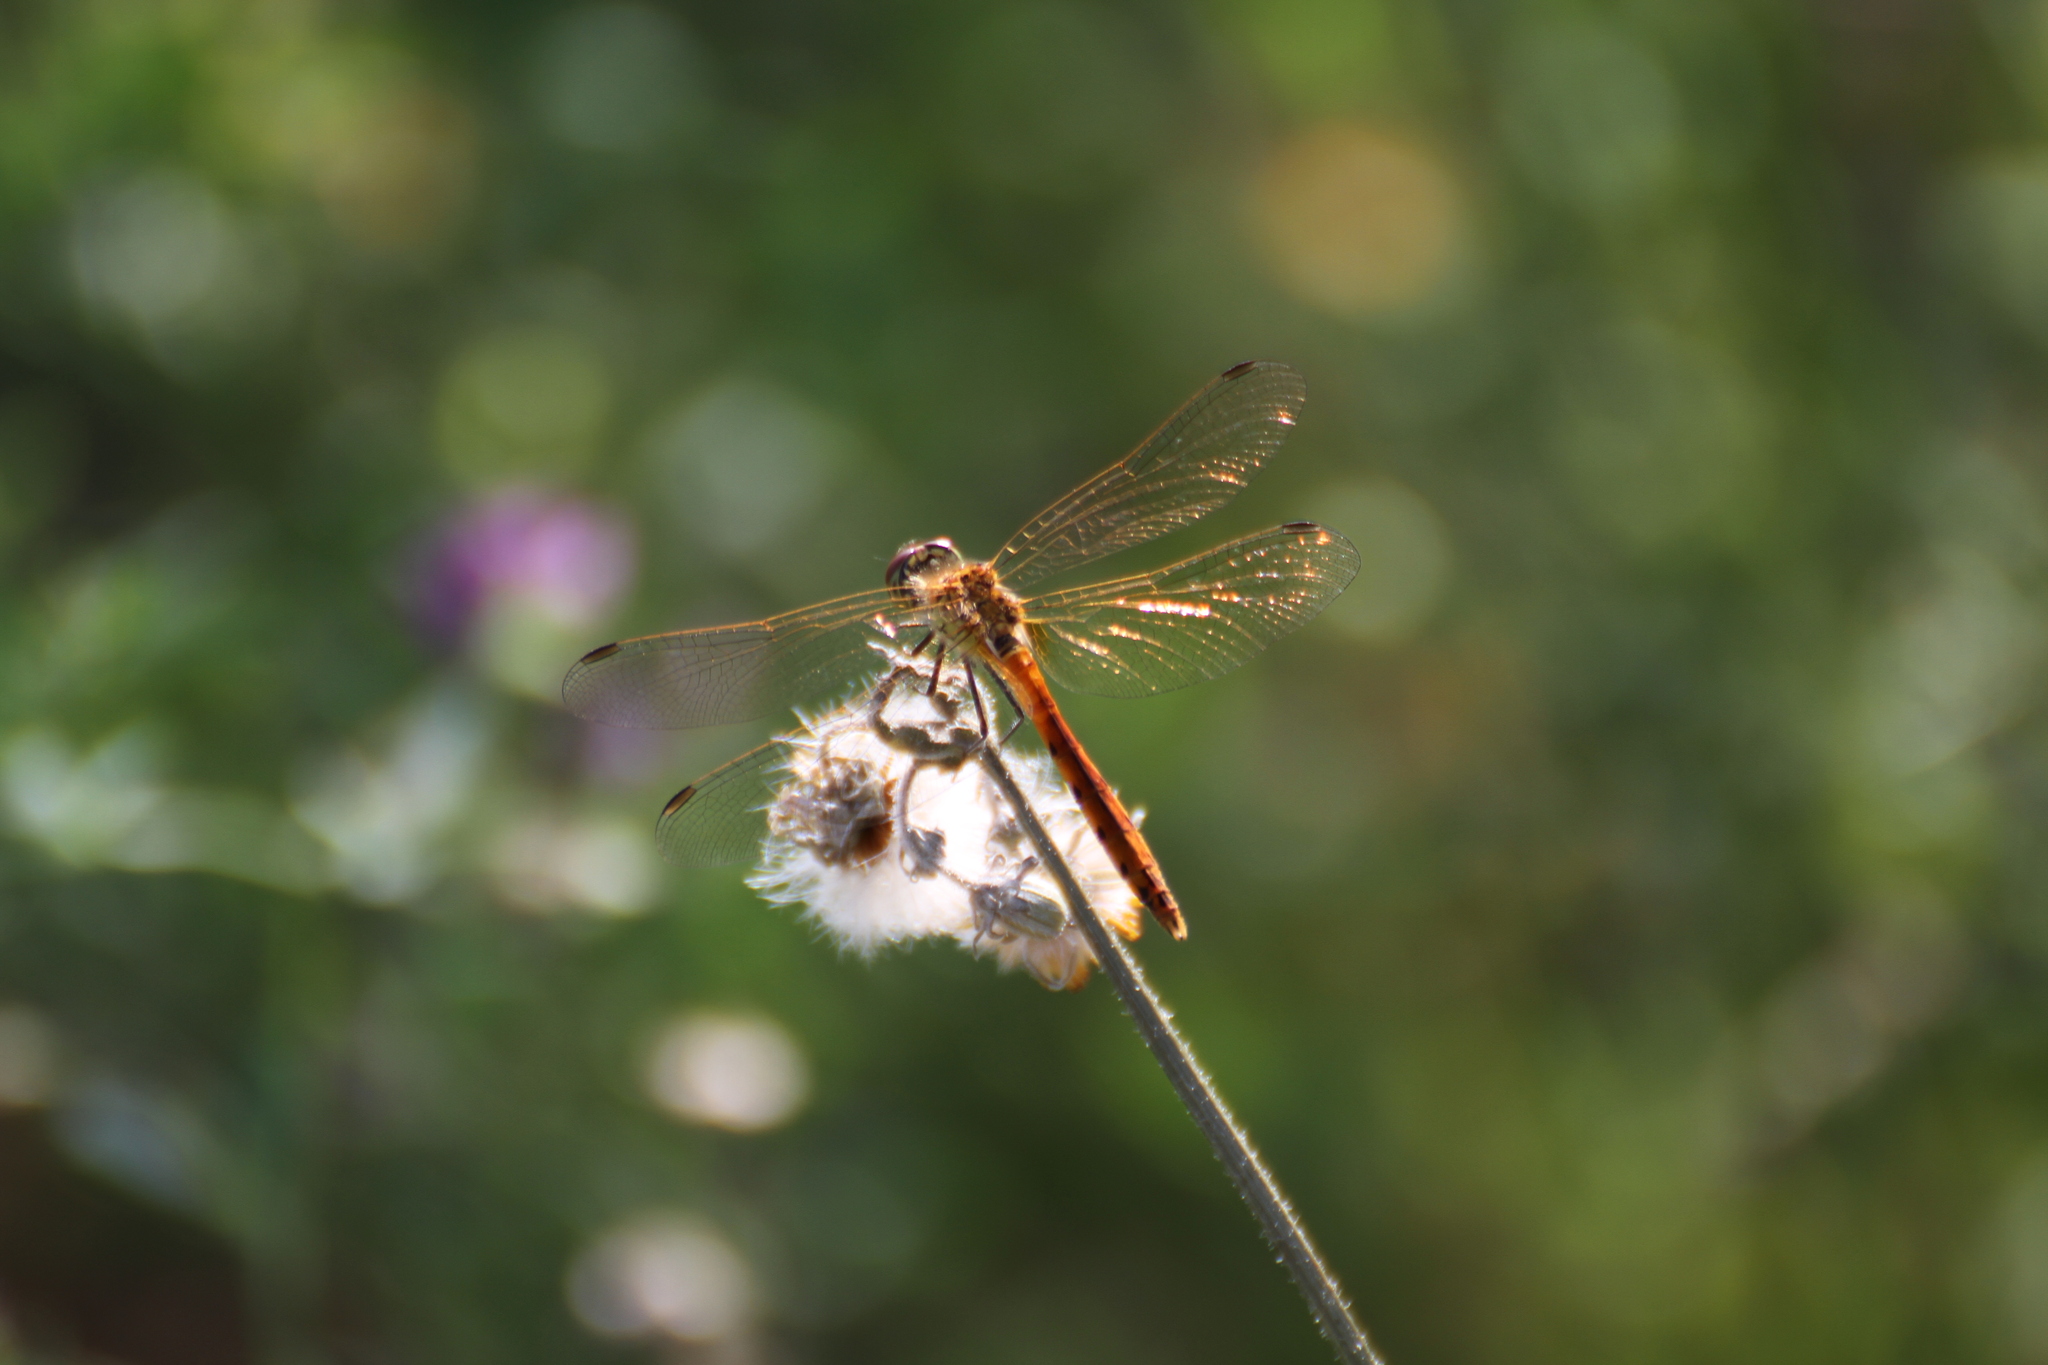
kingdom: Animalia
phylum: Arthropoda
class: Insecta
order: Odonata
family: Libellulidae
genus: Sympetrum
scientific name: Sympetrum depressiusculum
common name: Spotted darter
